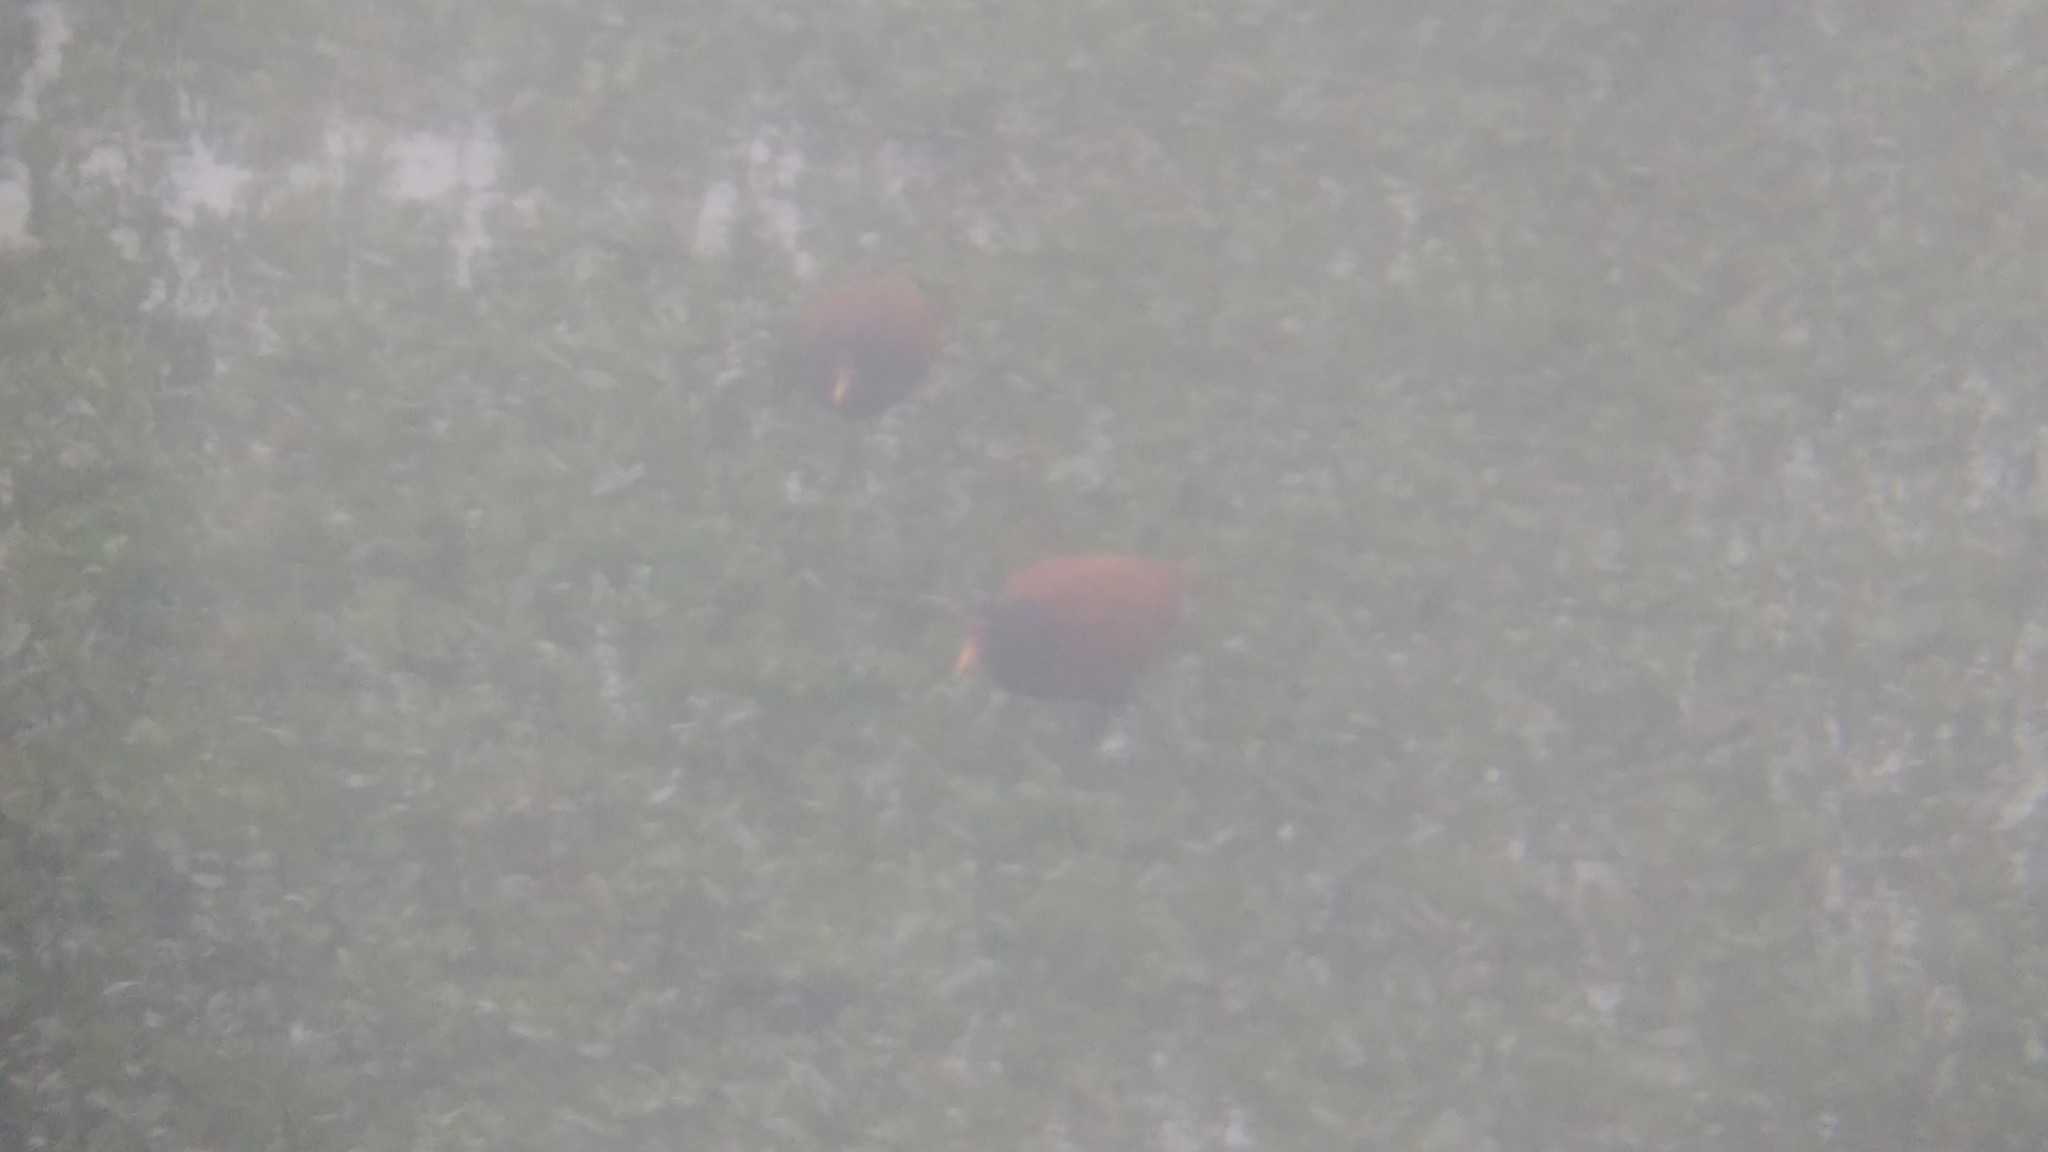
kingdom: Animalia
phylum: Chordata
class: Aves
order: Charadriiformes
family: Jacanidae
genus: Jacana
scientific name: Jacana jacana
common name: Wattled jacana
